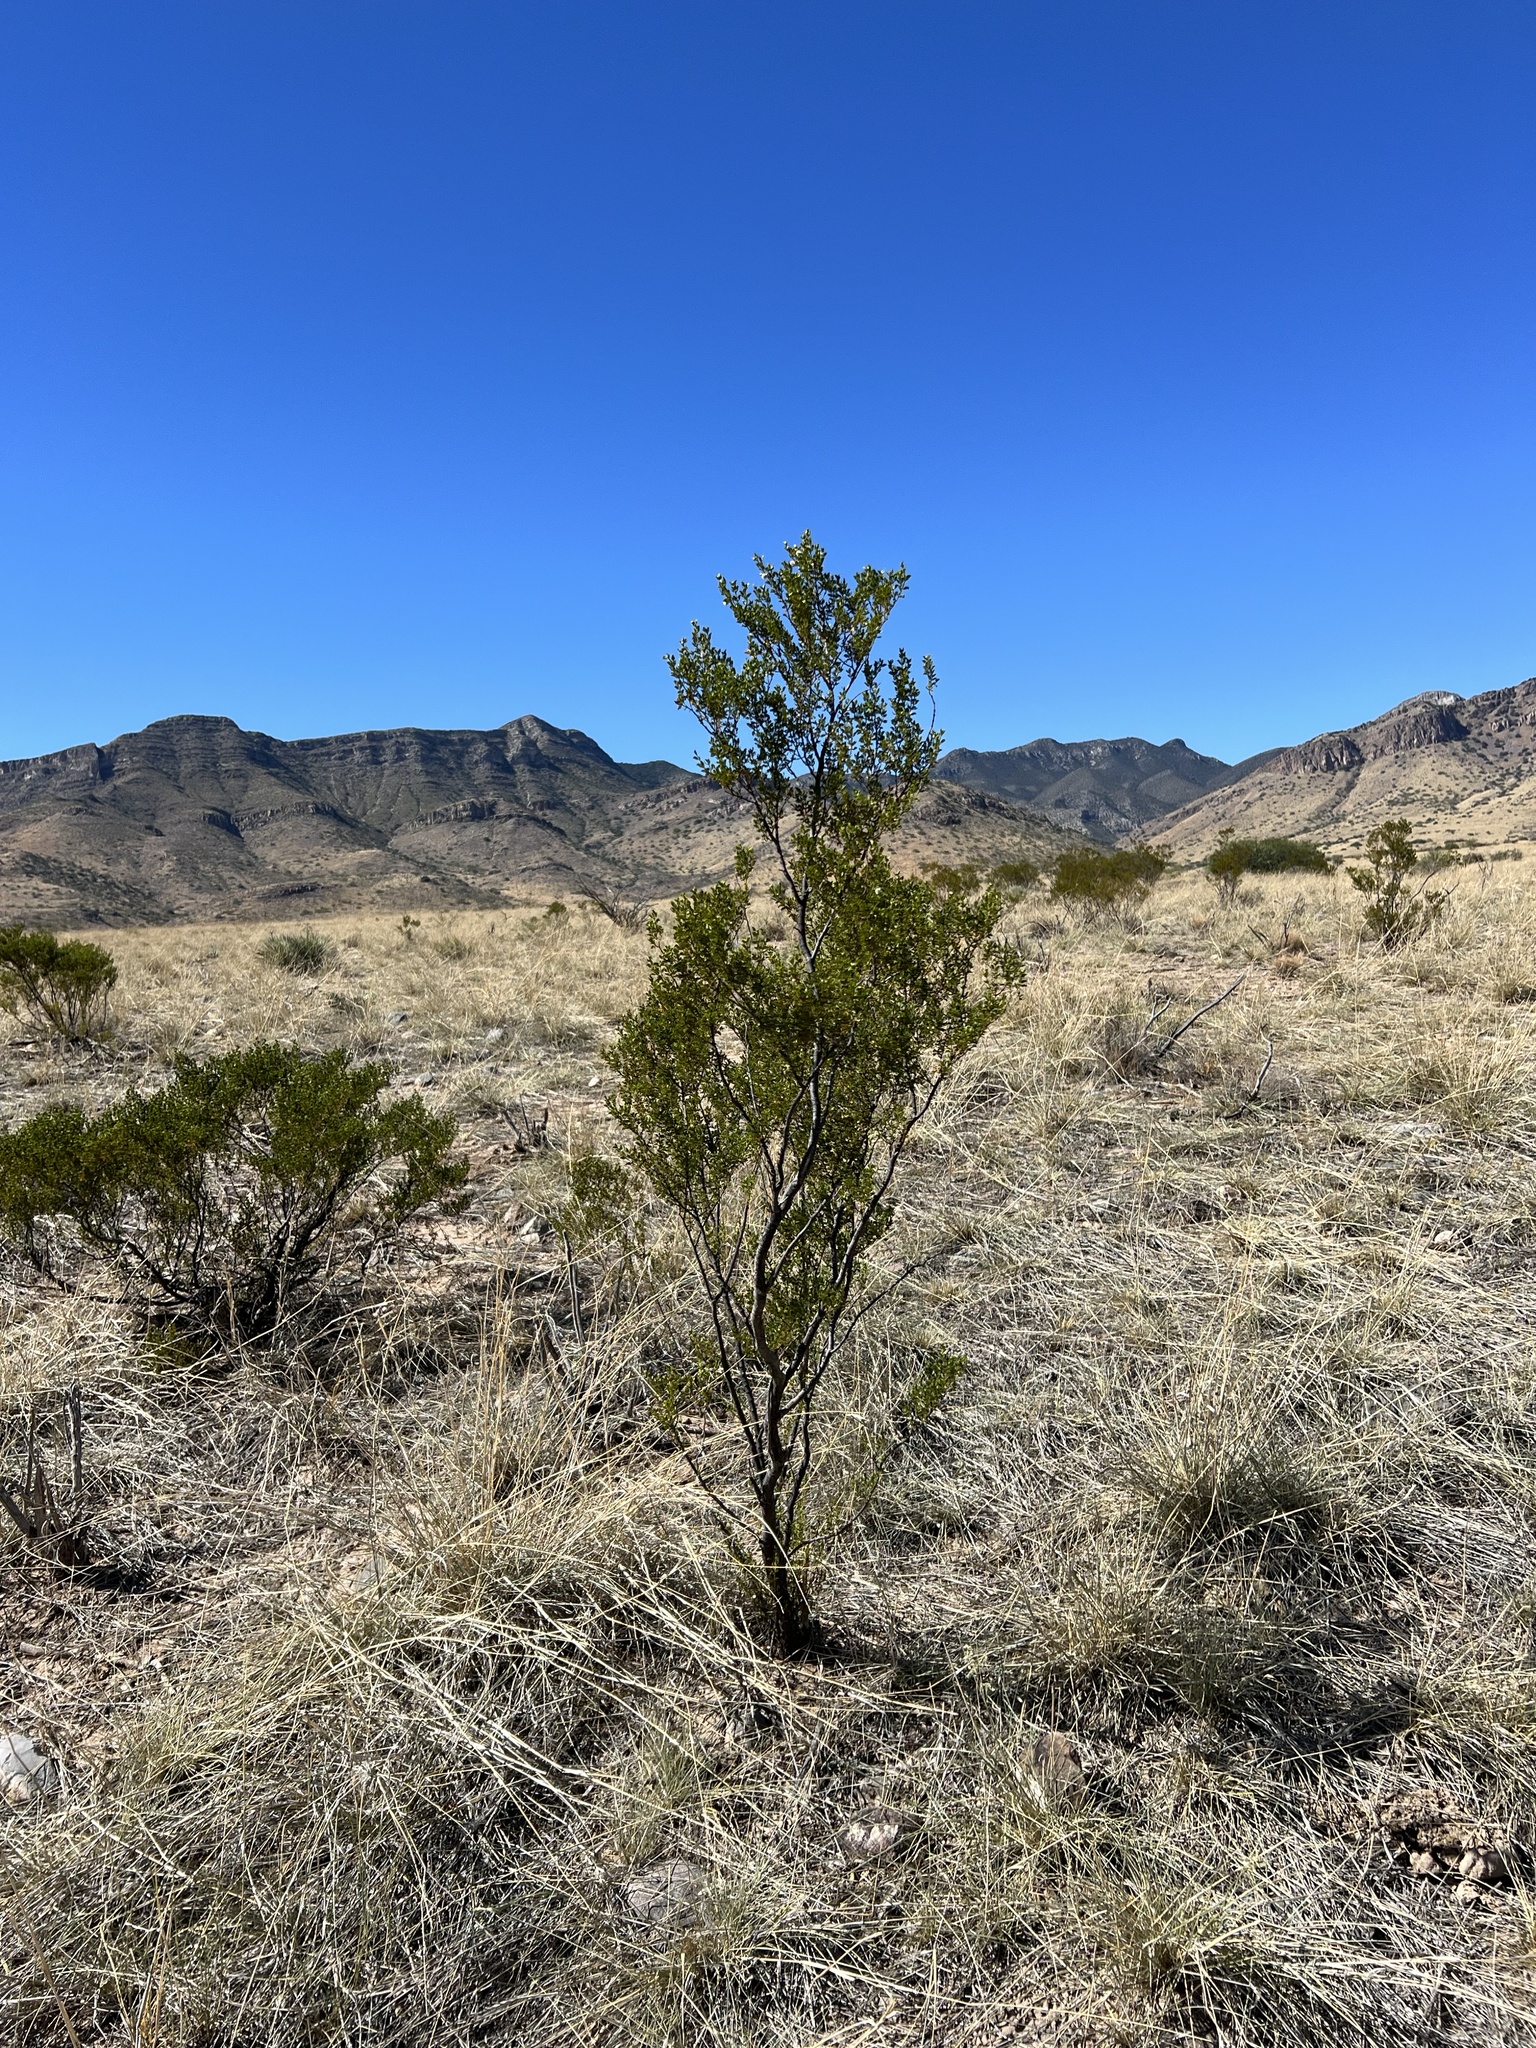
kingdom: Plantae
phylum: Tracheophyta
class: Magnoliopsida
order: Zygophyllales
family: Zygophyllaceae
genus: Larrea
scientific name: Larrea tridentata
